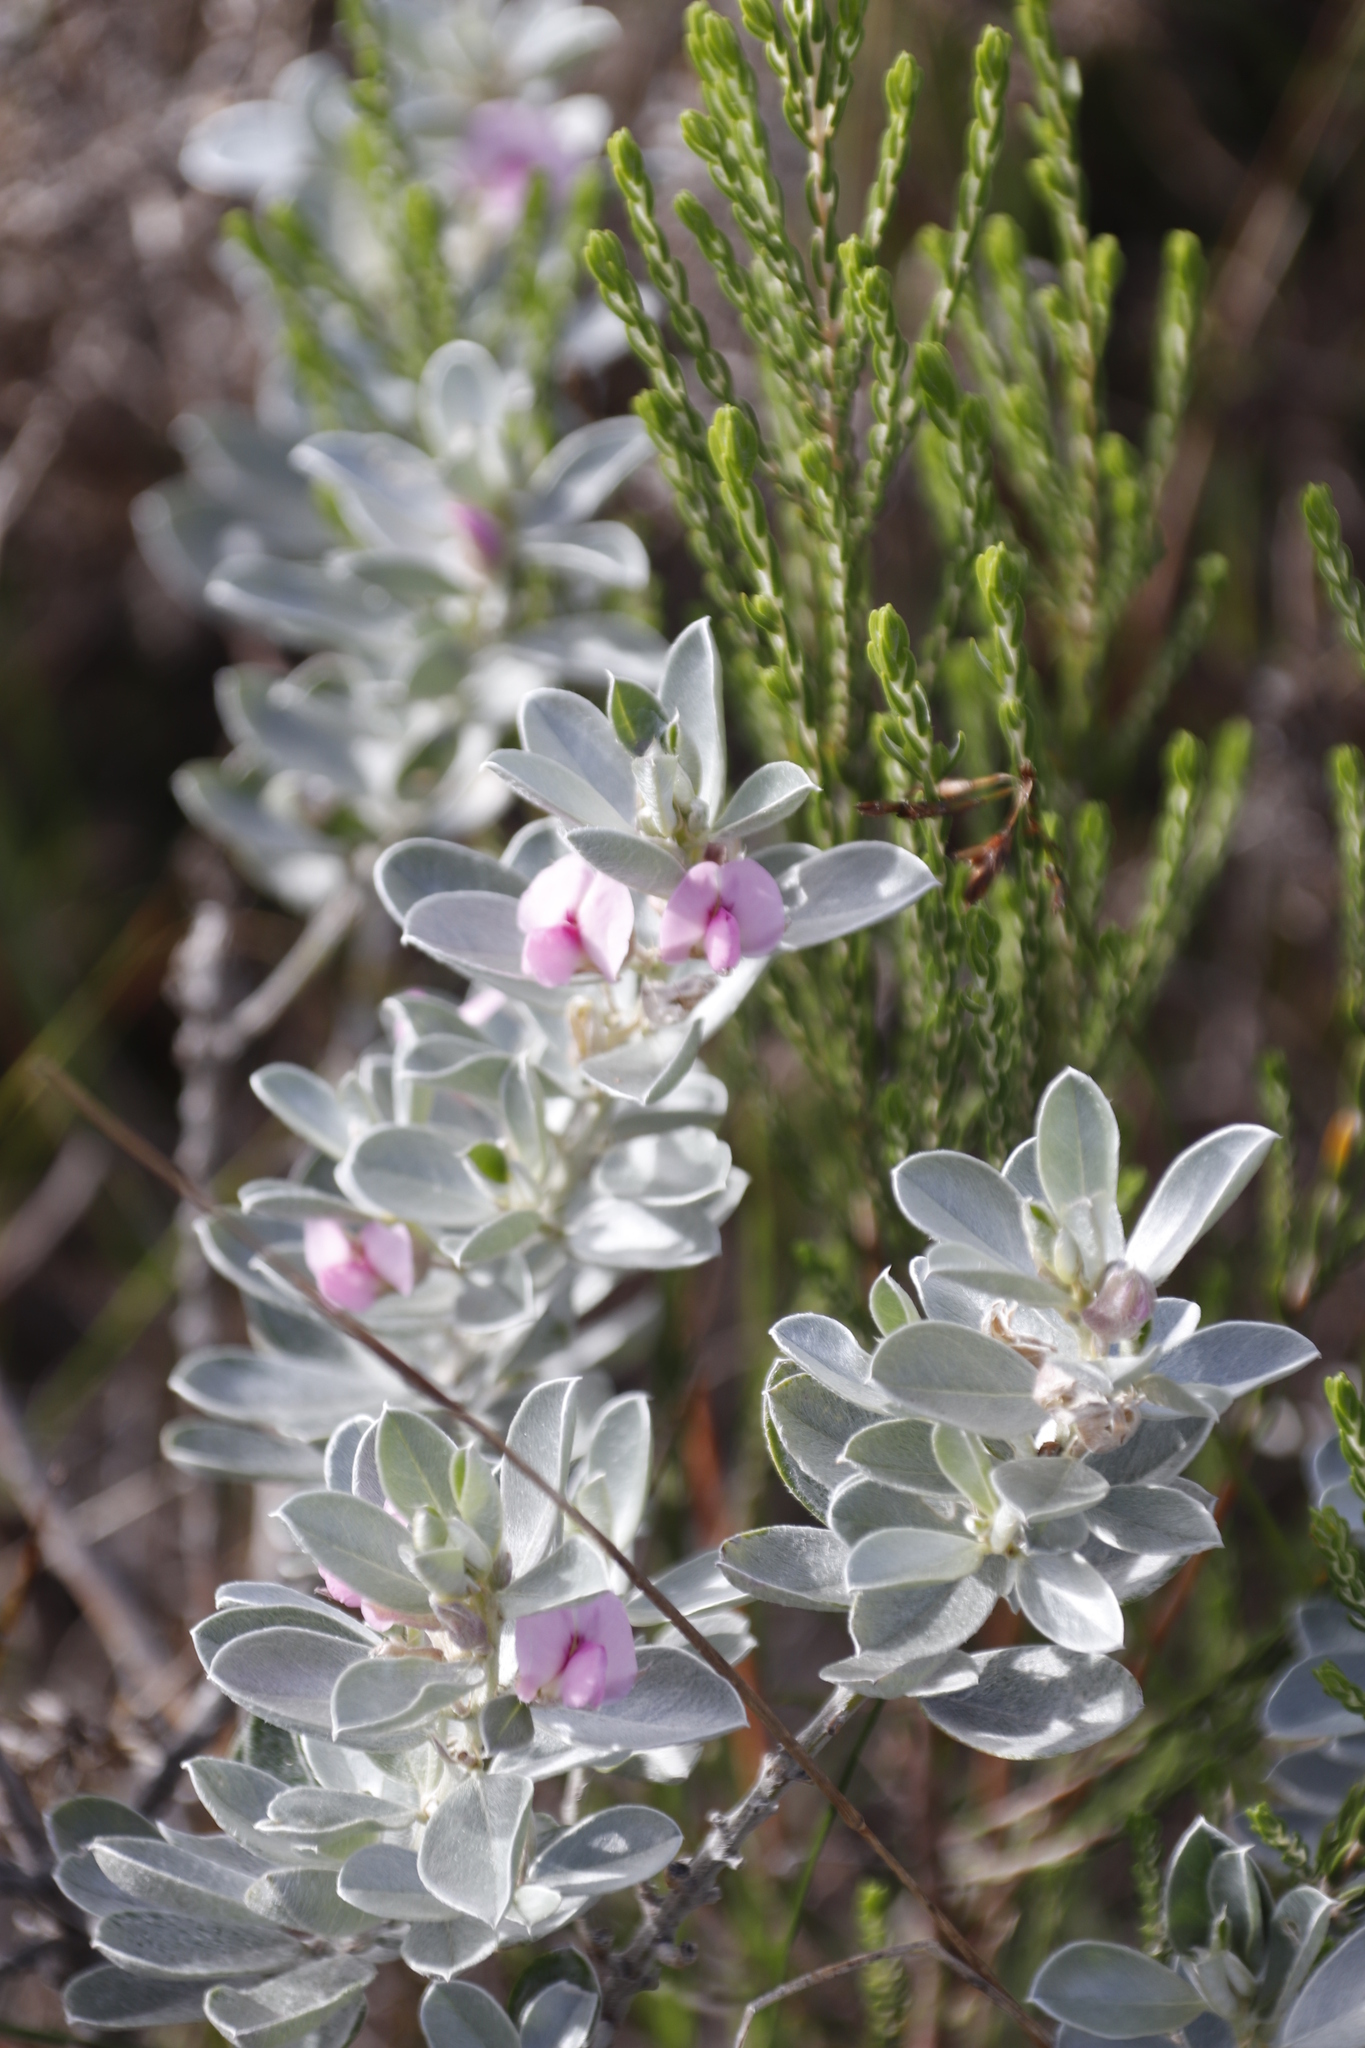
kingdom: Plantae
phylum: Tracheophyta
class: Magnoliopsida
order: Fabales
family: Fabaceae
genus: Podalyria
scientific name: Podalyria sericea
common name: Silver podalyria
